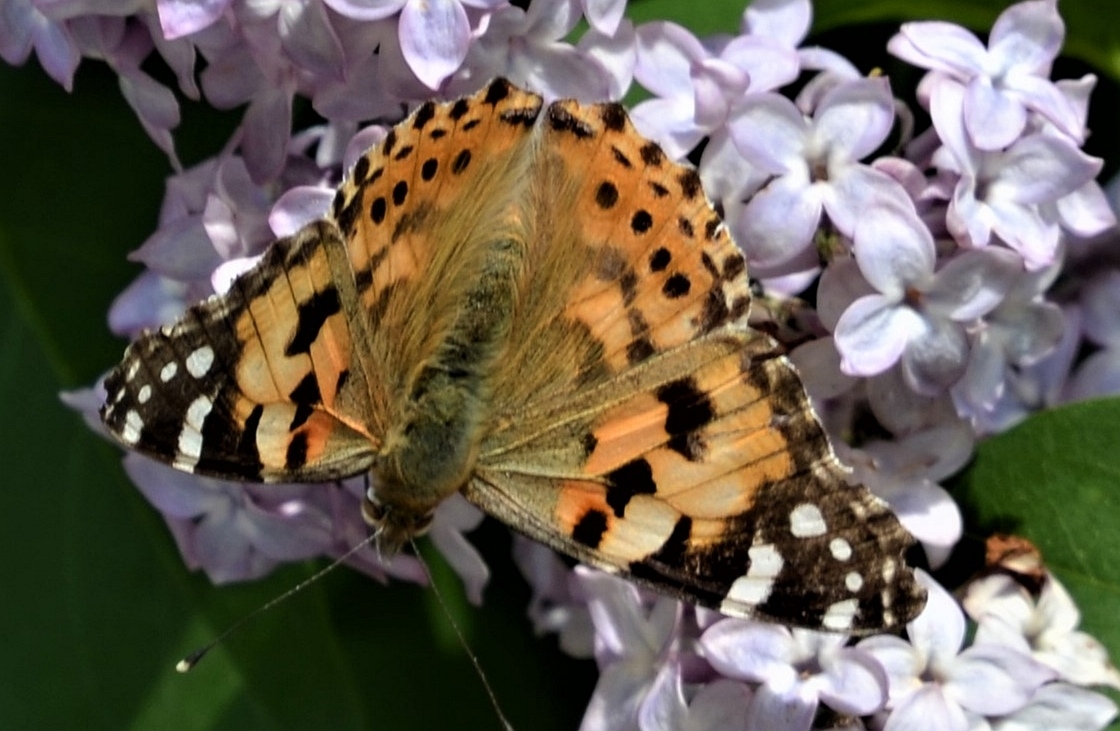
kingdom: Animalia
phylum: Arthropoda
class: Insecta
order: Lepidoptera
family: Nymphalidae
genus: Vanessa
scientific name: Vanessa cardui
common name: Painted lady
